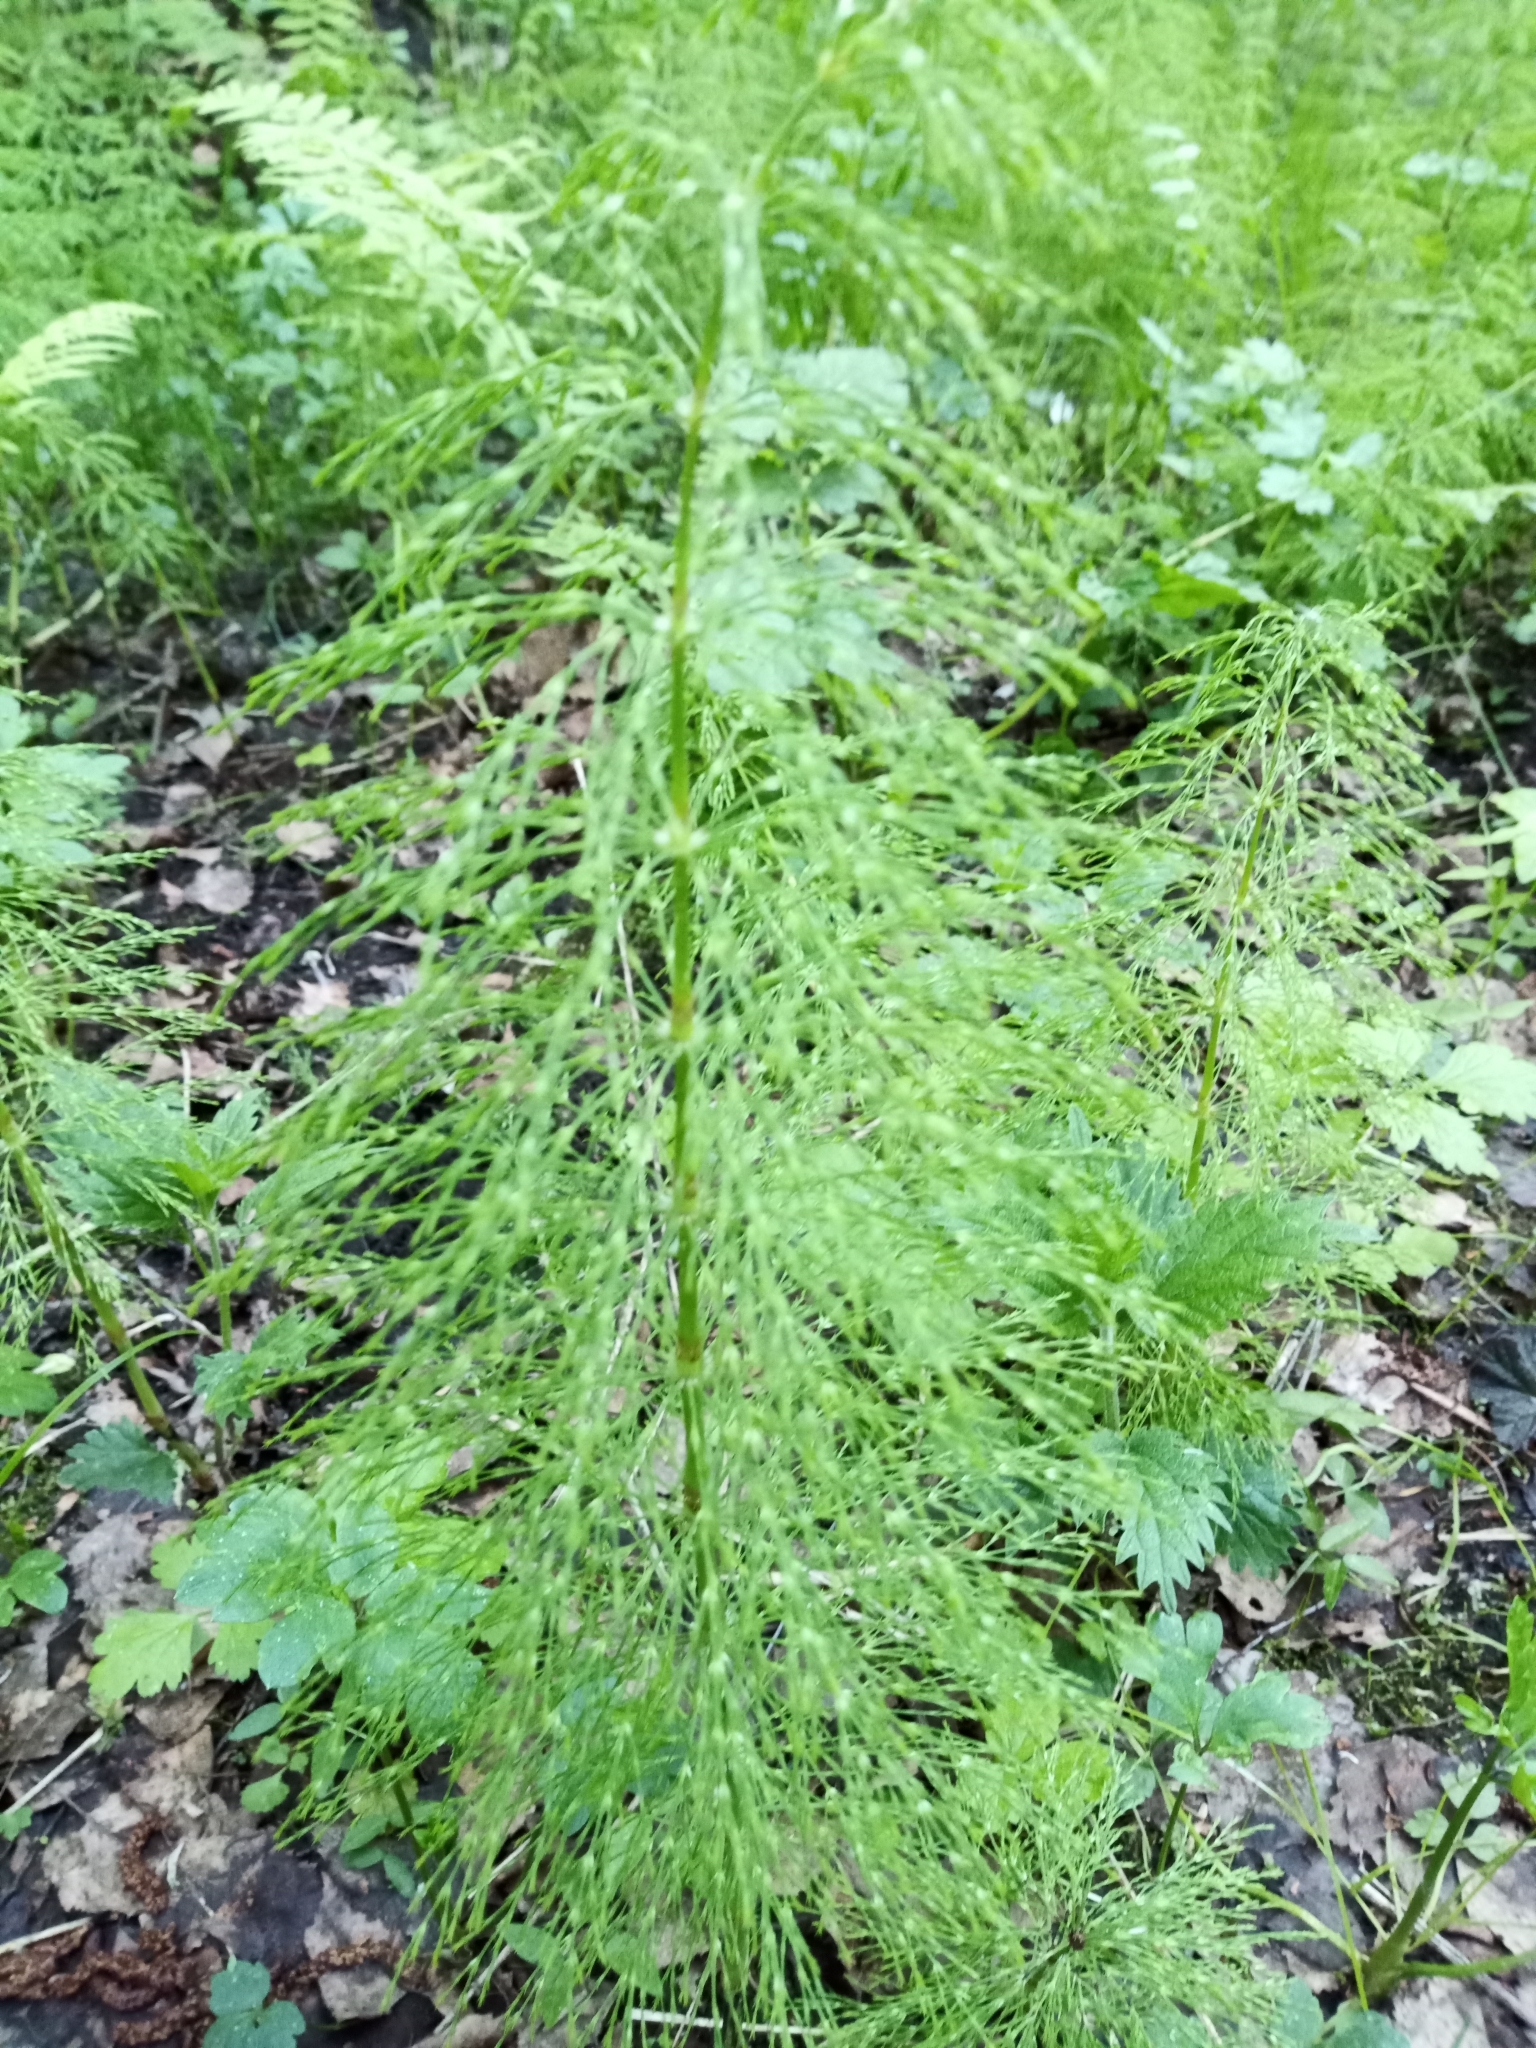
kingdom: Plantae
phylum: Tracheophyta
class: Polypodiopsida
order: Equisetales
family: Equisetaceae
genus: Equisetum
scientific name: Equisetum sylvaticum
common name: Wood horsetail
